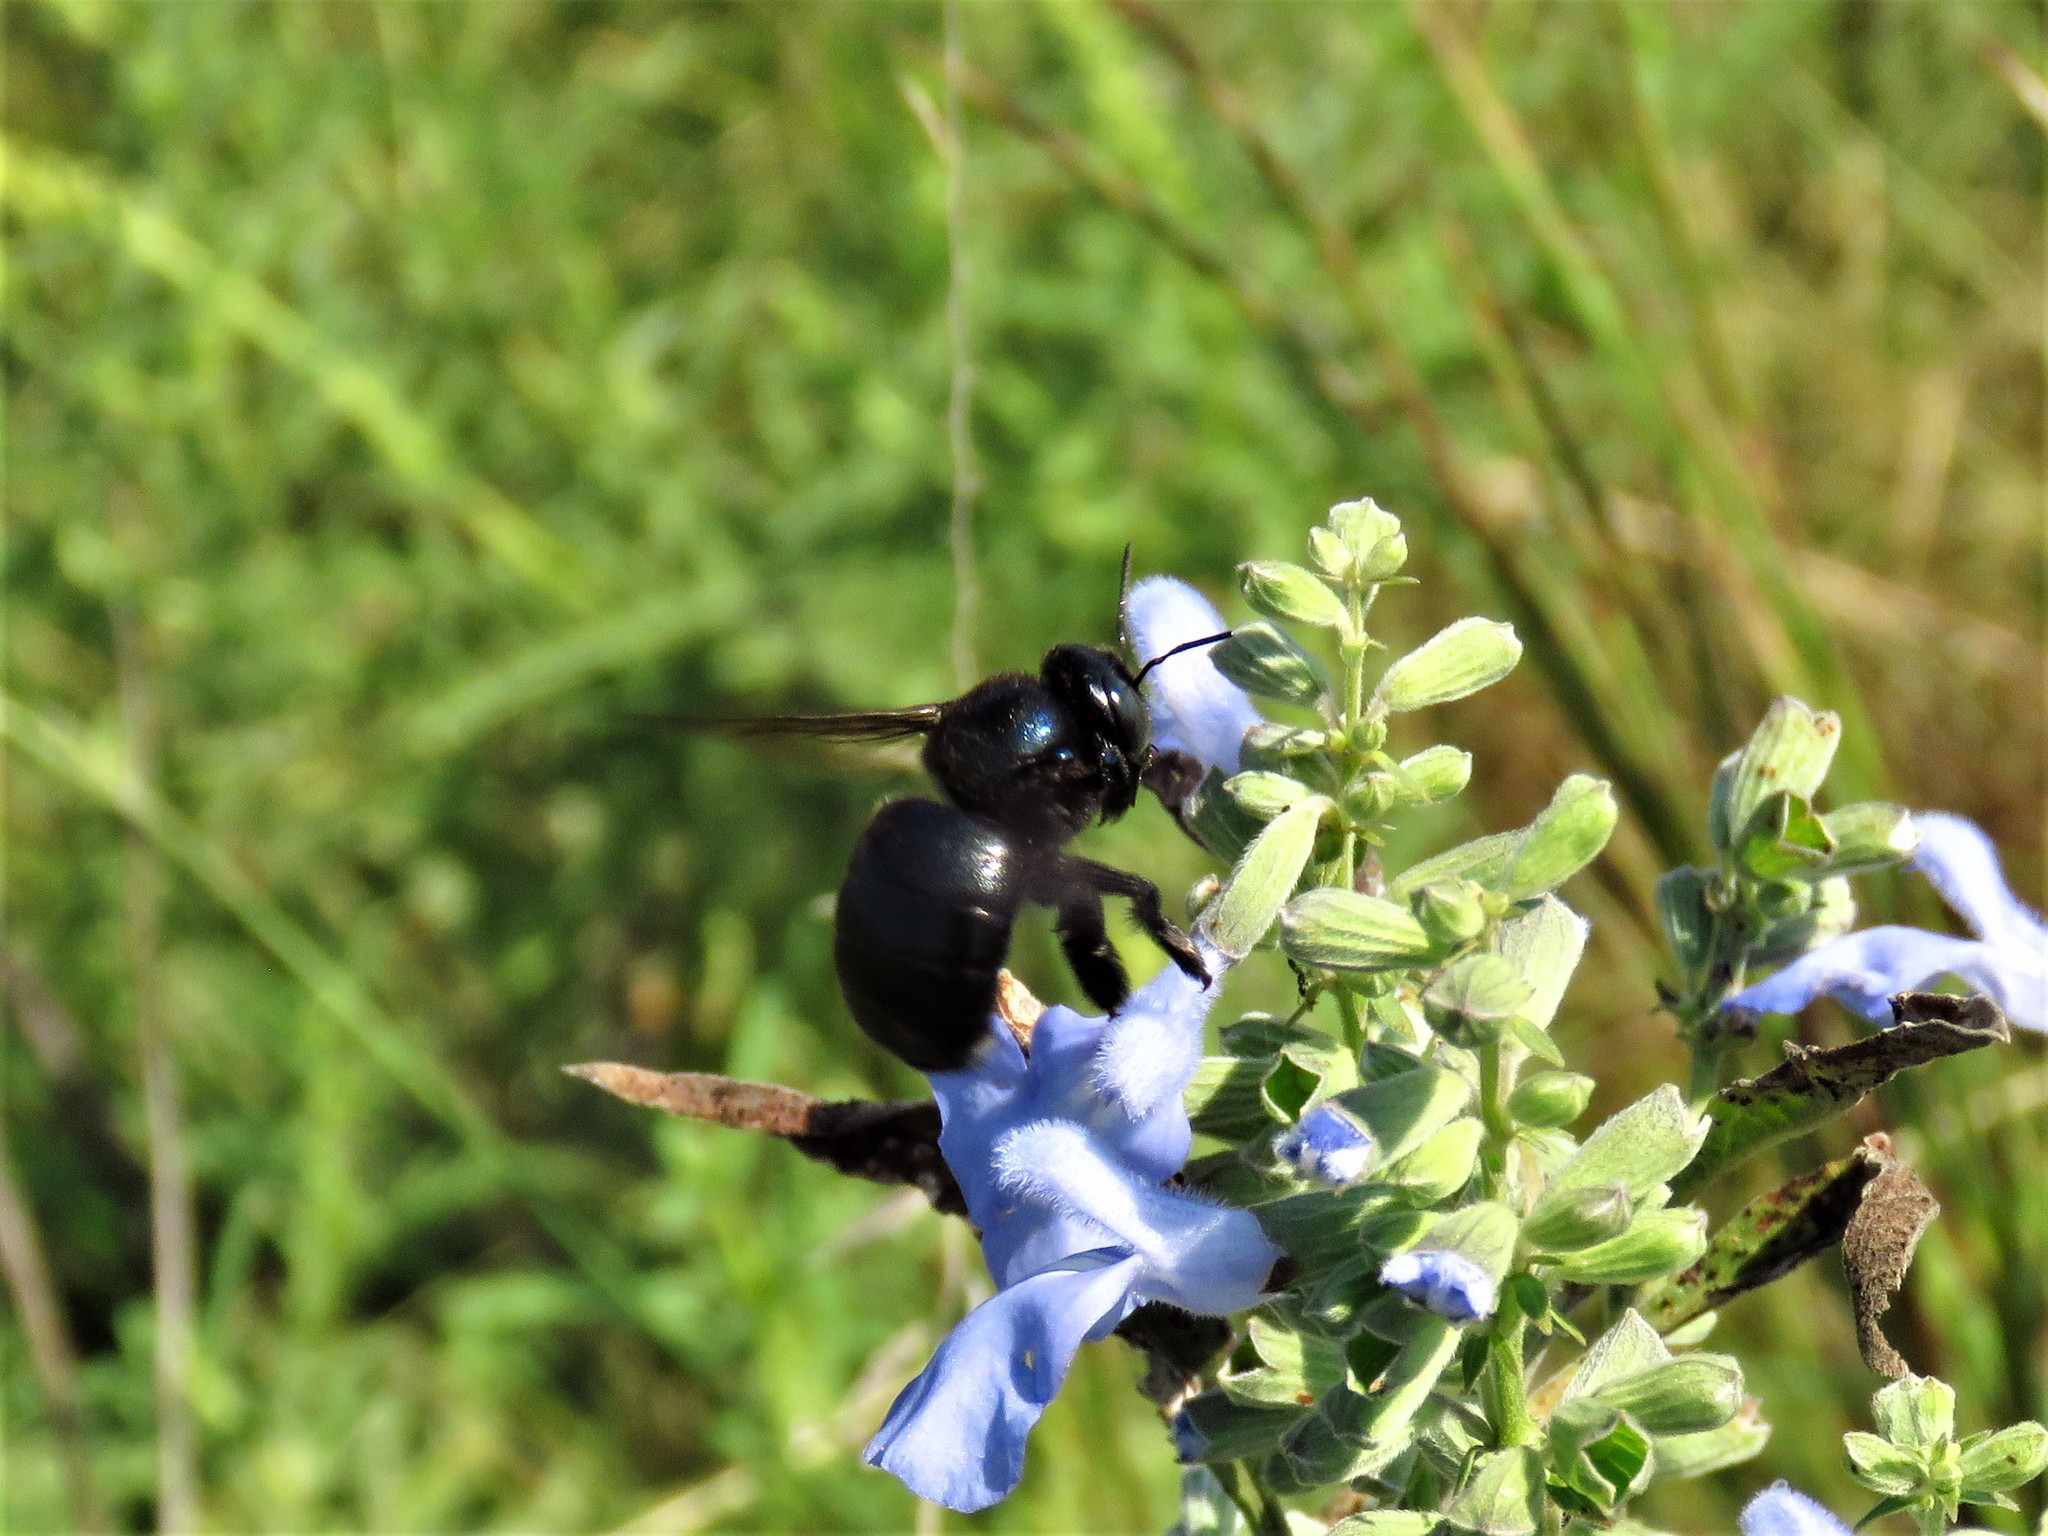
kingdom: Animalia
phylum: Arthropoda
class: Insecta
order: Hymenoptera
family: Apidae
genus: Xylocopa
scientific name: Xylocopa micans
